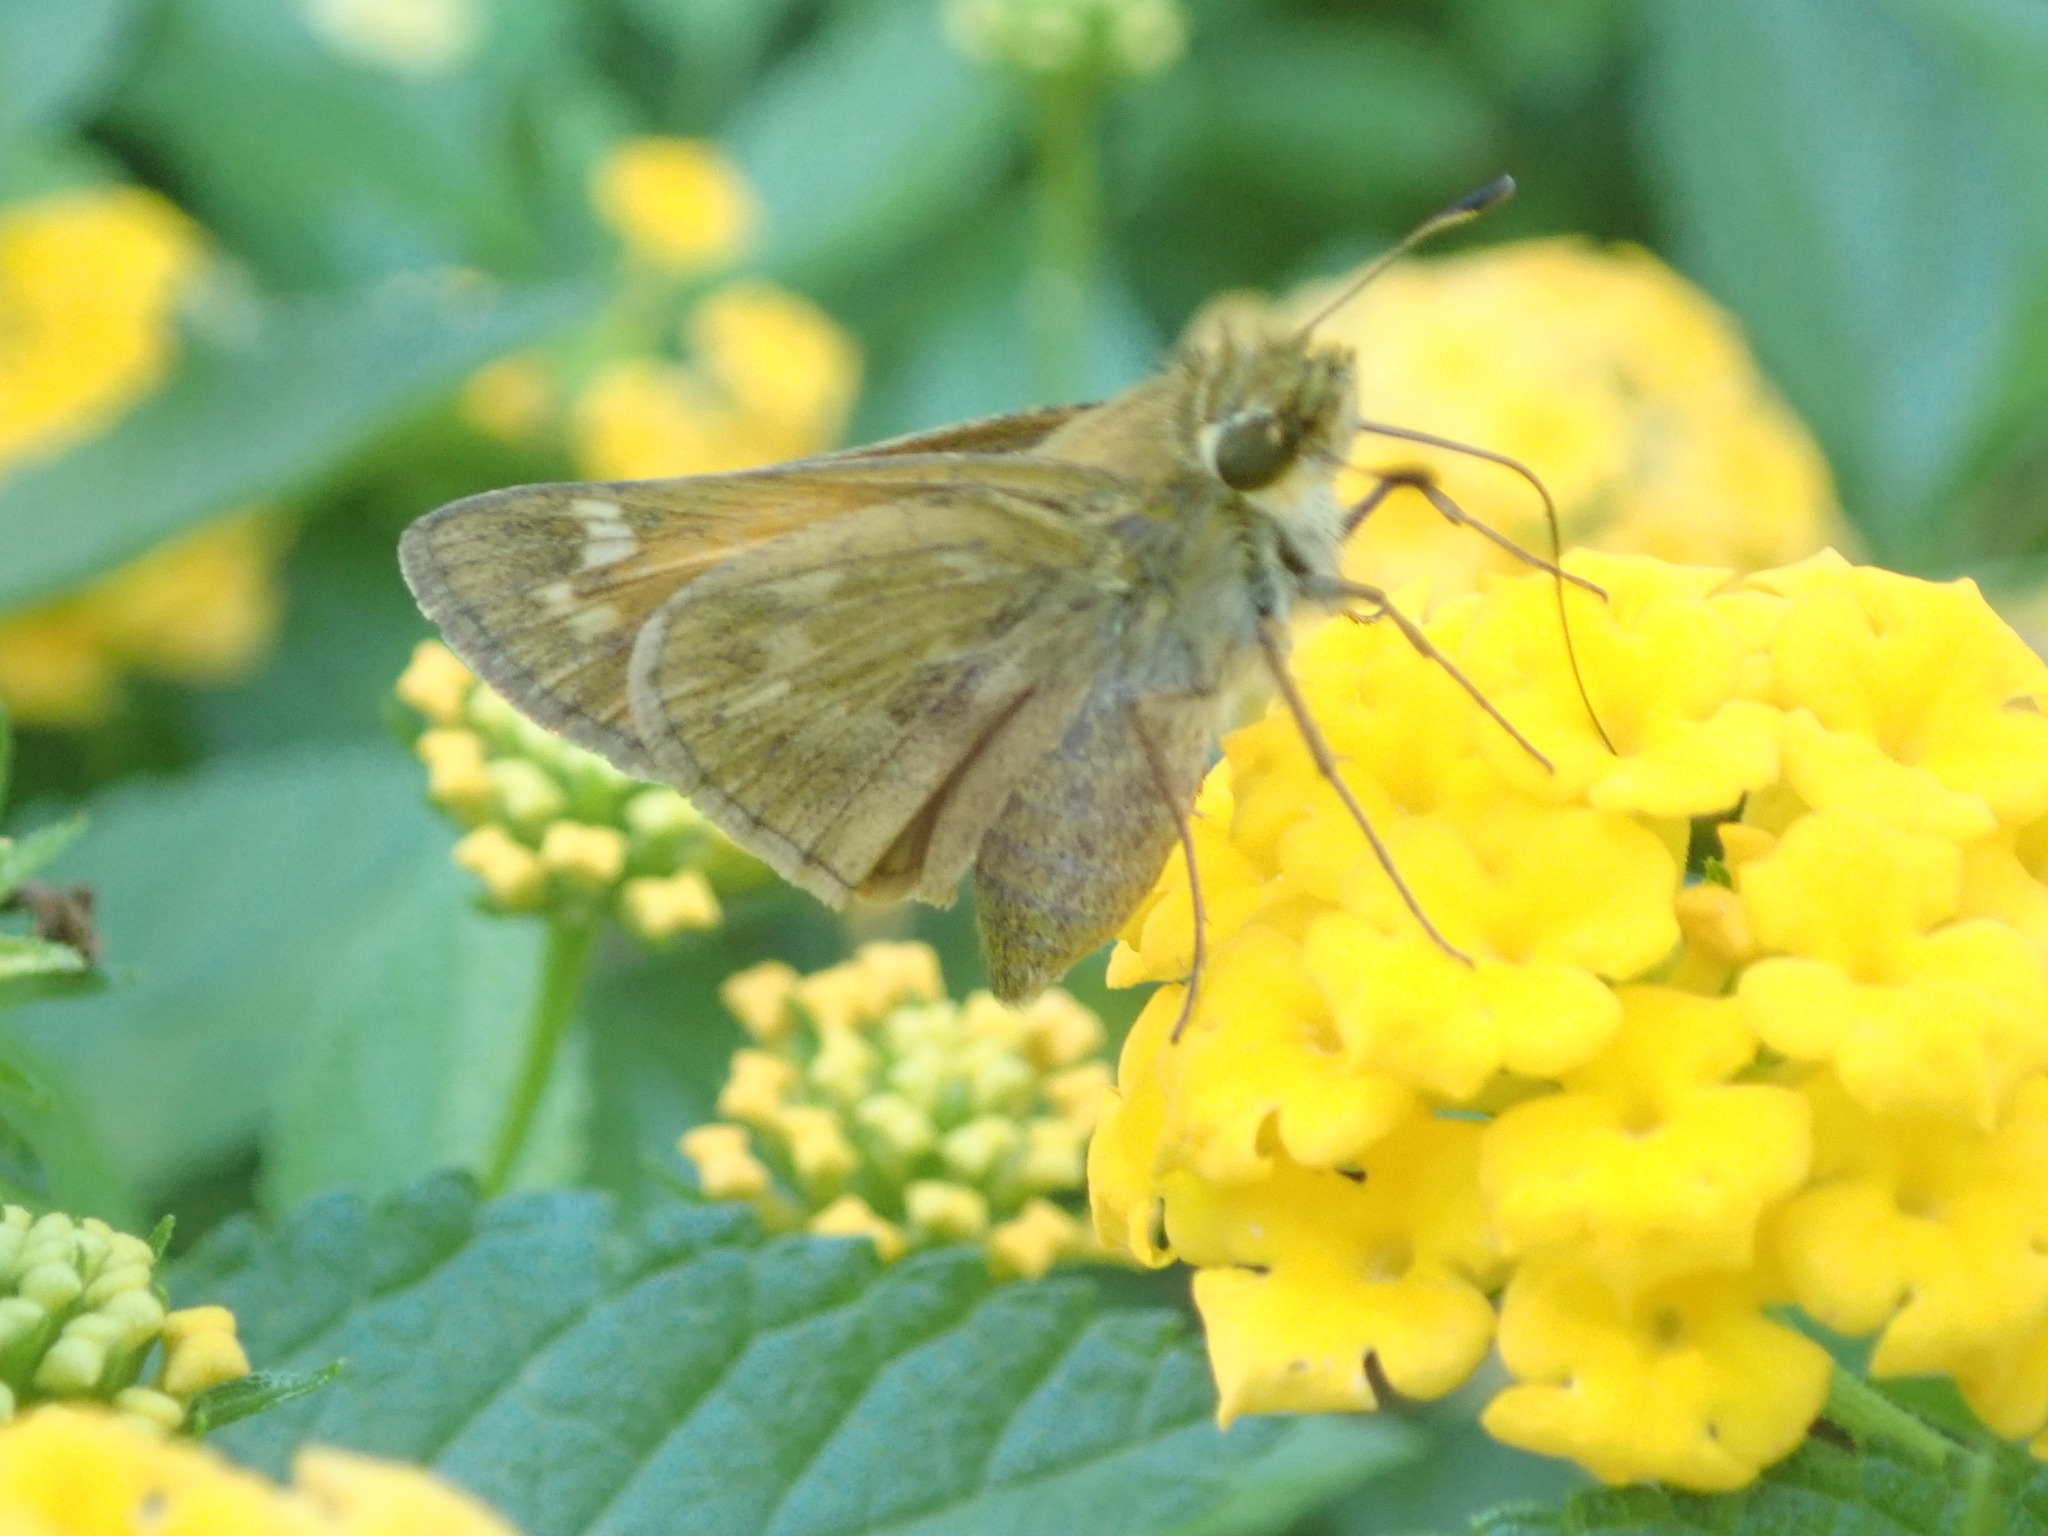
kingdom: Animalia
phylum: Arthropoda
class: Insecta
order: Lepidoptera
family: Hesperiidae
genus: Atalopedes
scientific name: Atalopedes
